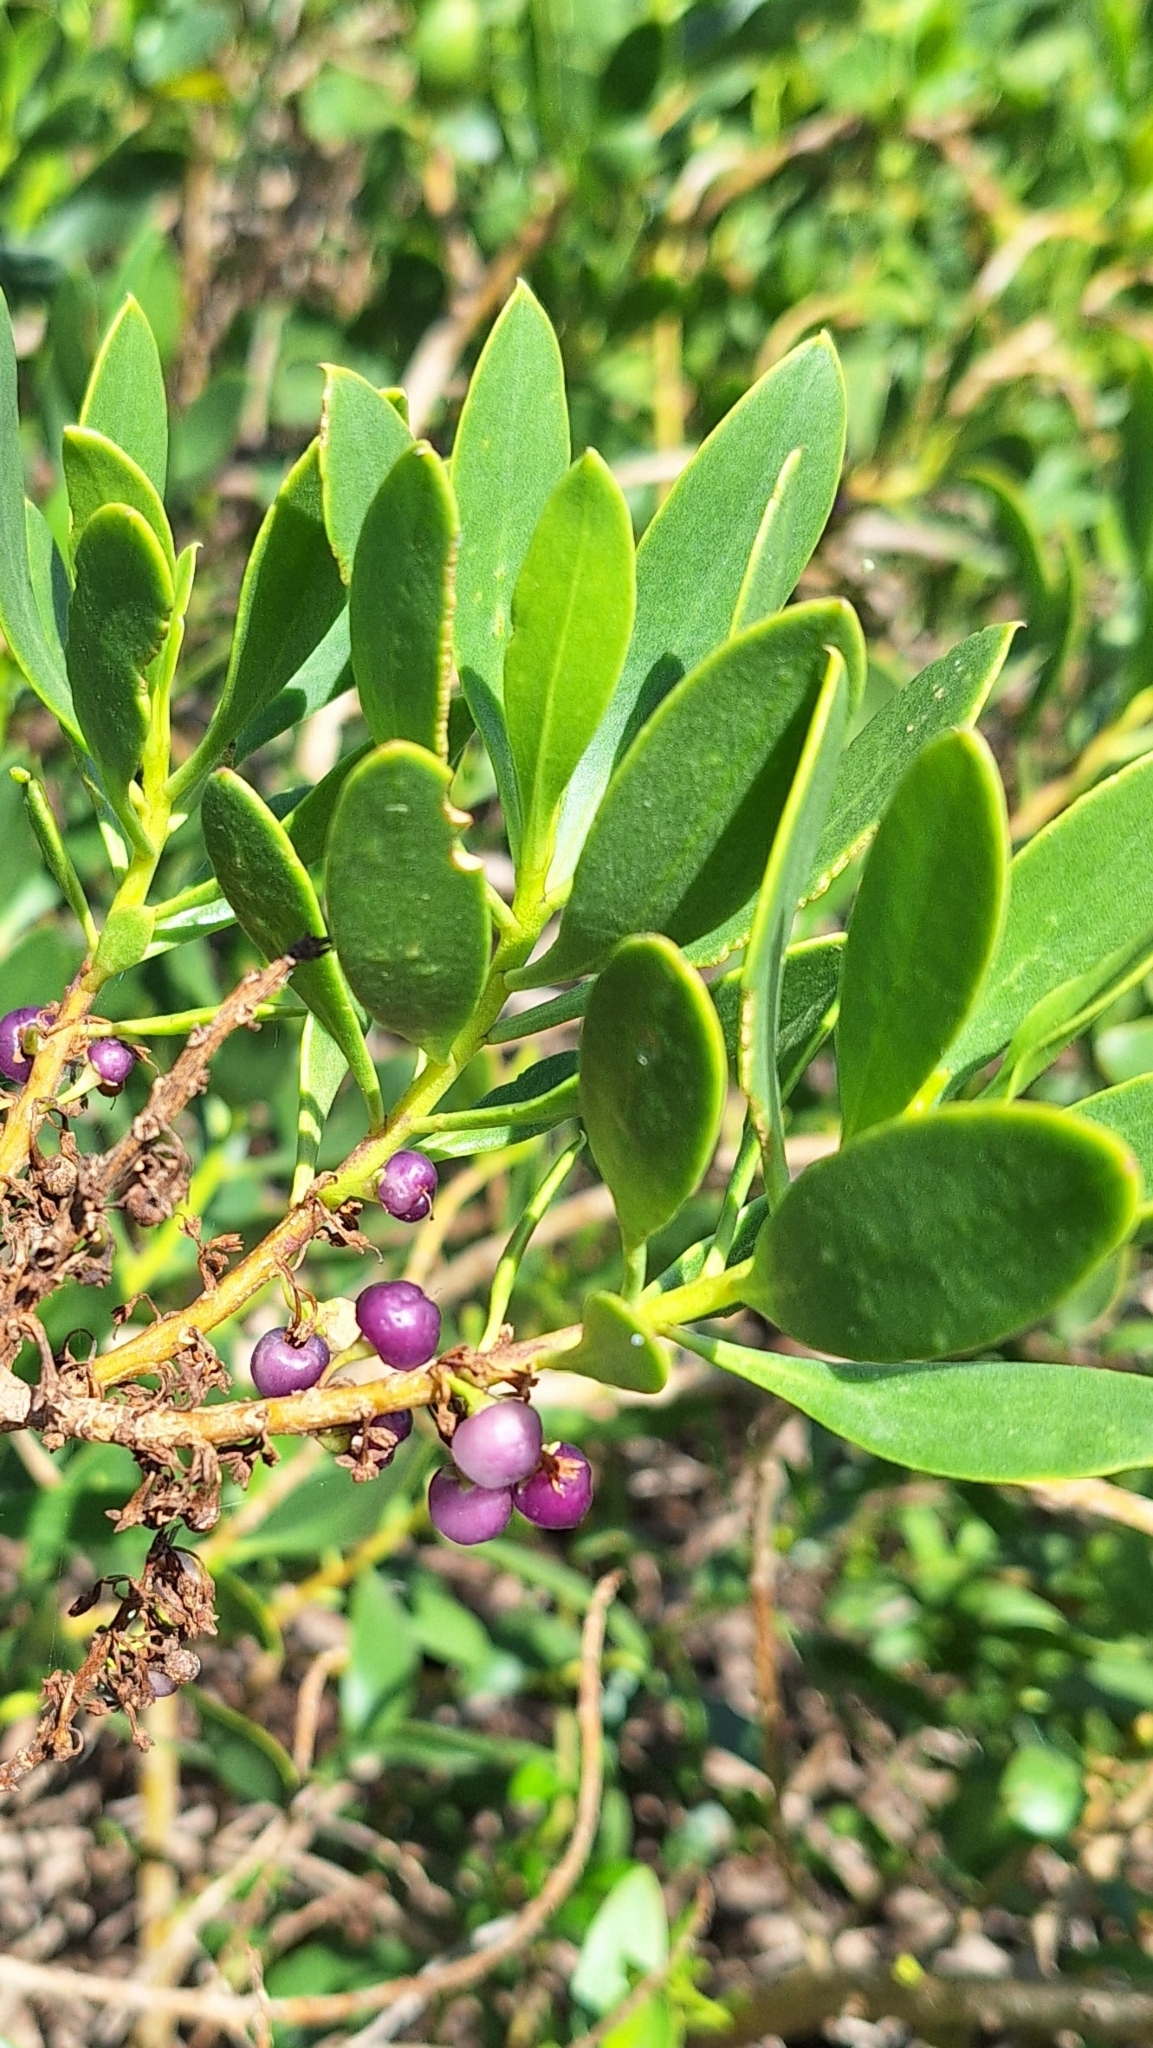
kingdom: Plantae
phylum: Tracheophyta
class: Magnoliopsida
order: Lamiales
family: Scrophulariaceae
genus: Myoporum
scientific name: Myoporum insulare
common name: Common boobialla
